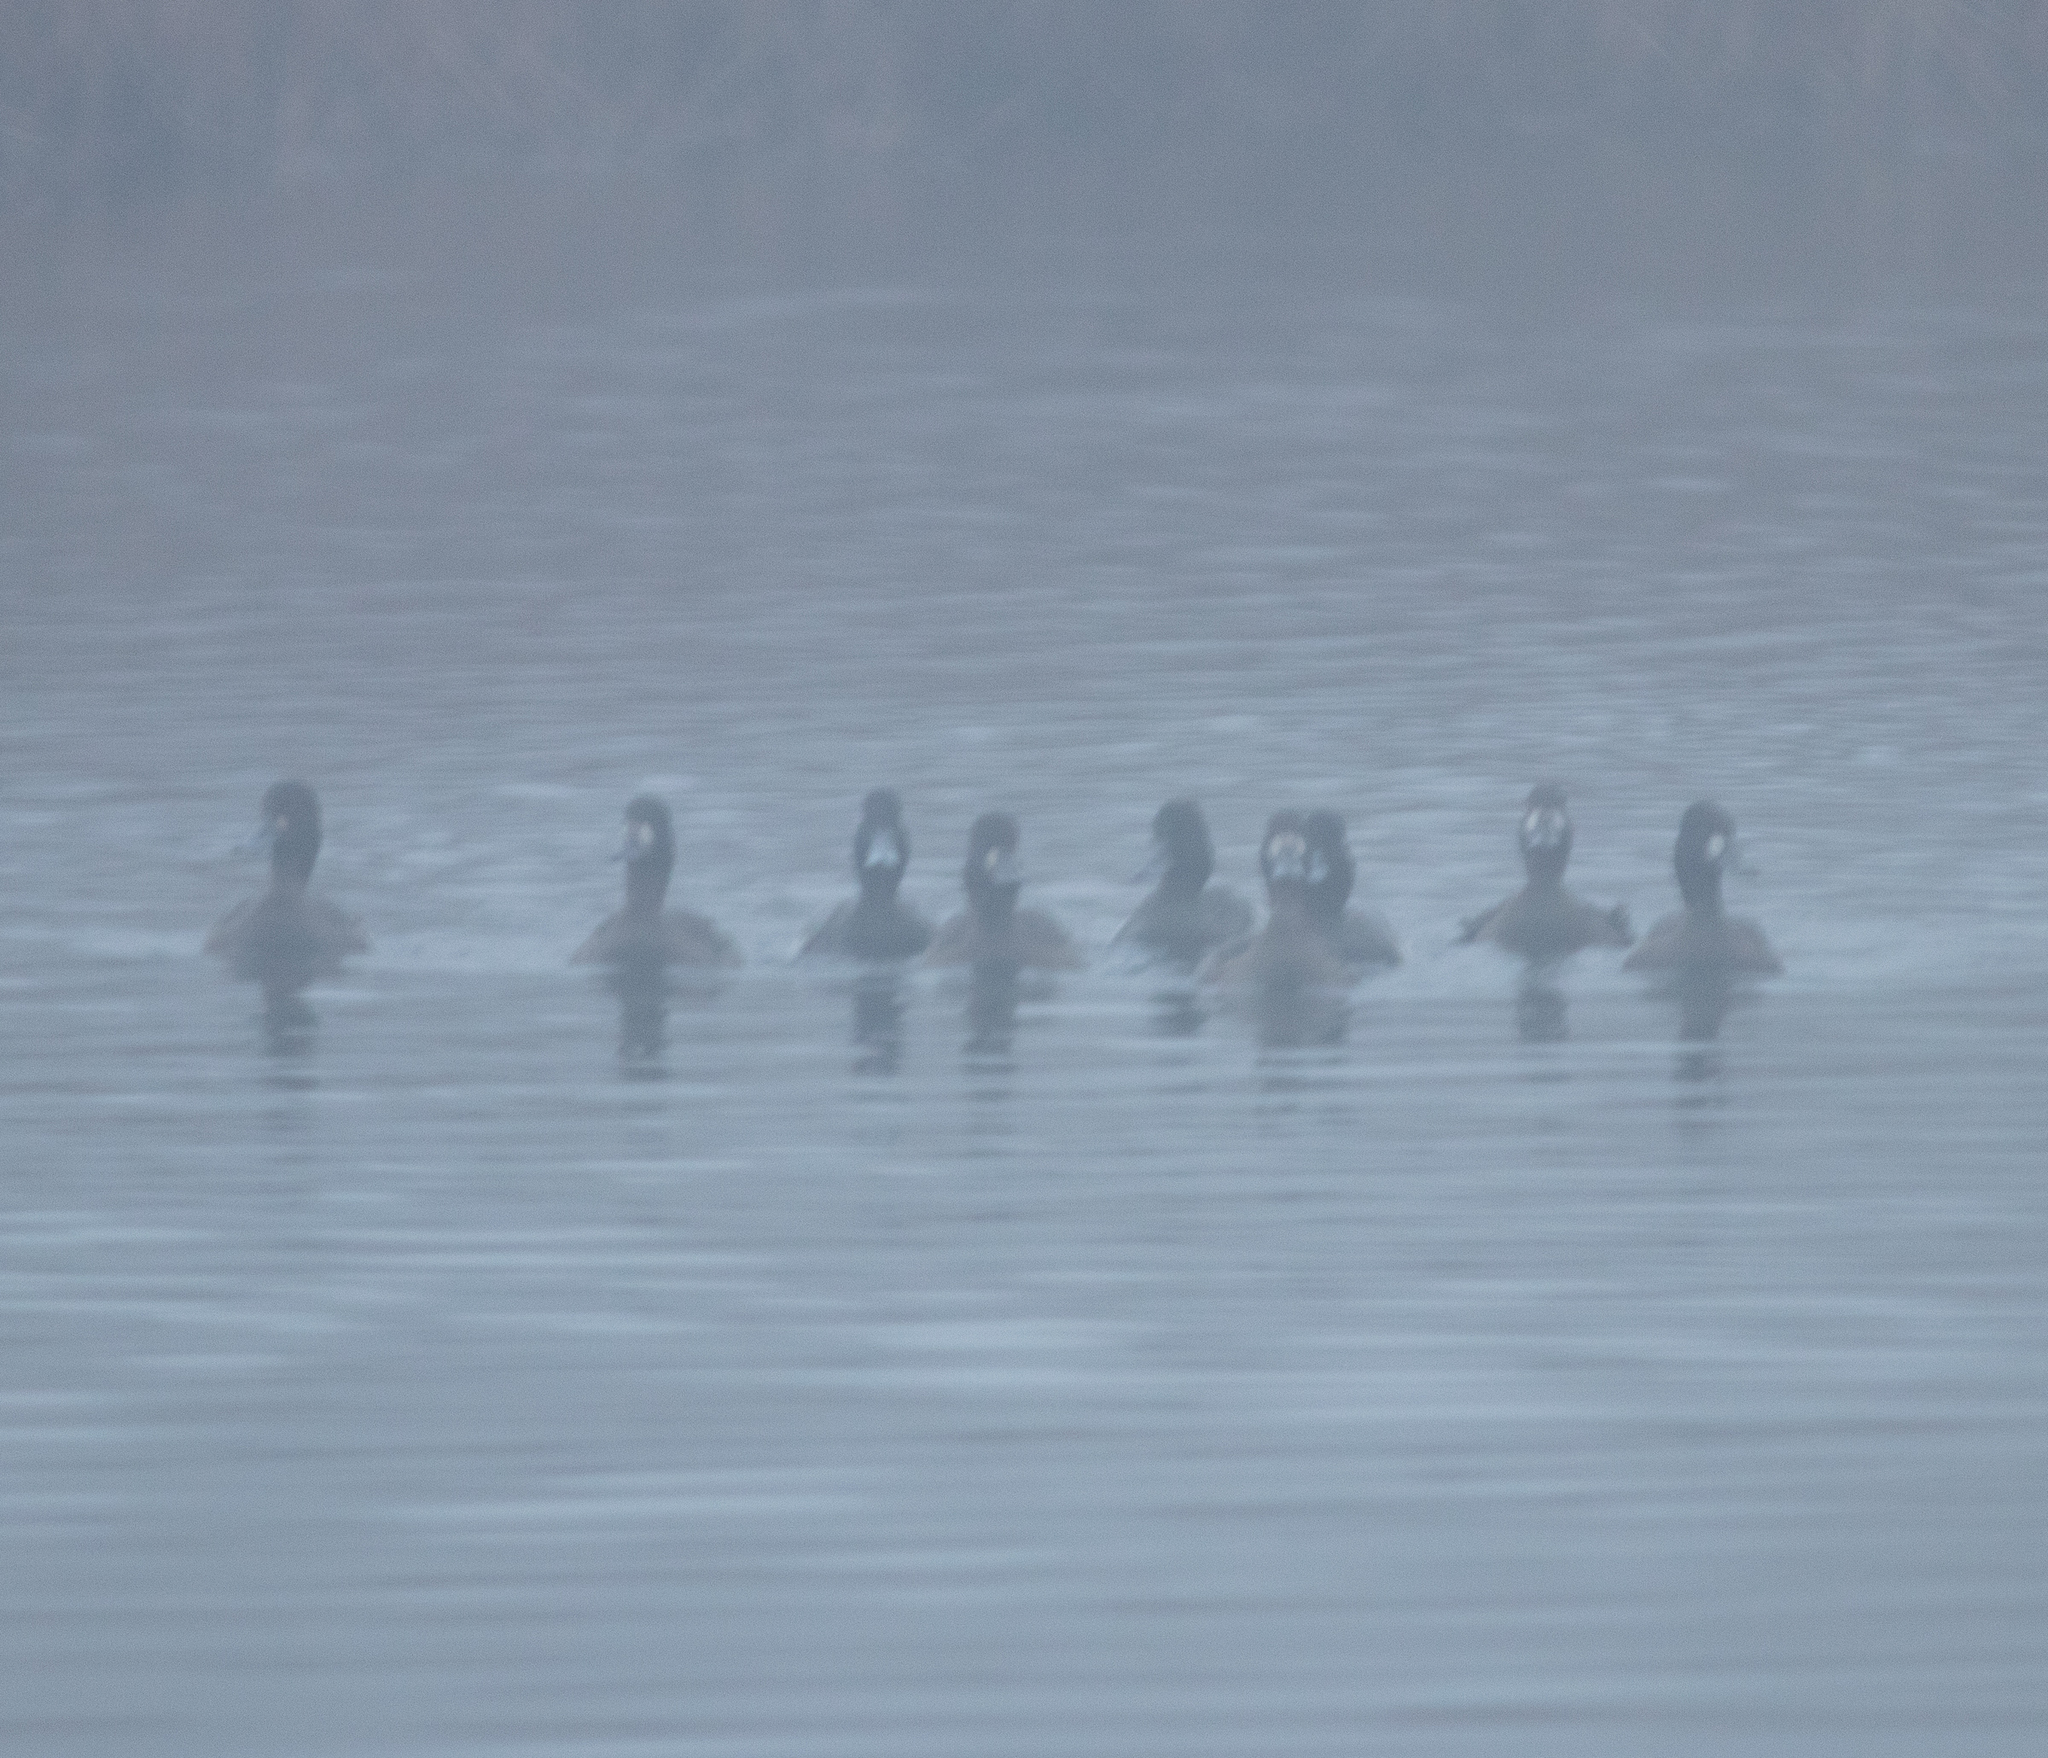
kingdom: Animalia
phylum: Chordata
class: Aves
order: Anseriformes
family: Anatidae
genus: Aythya
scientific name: Aythya affinis
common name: Lesser scaup
